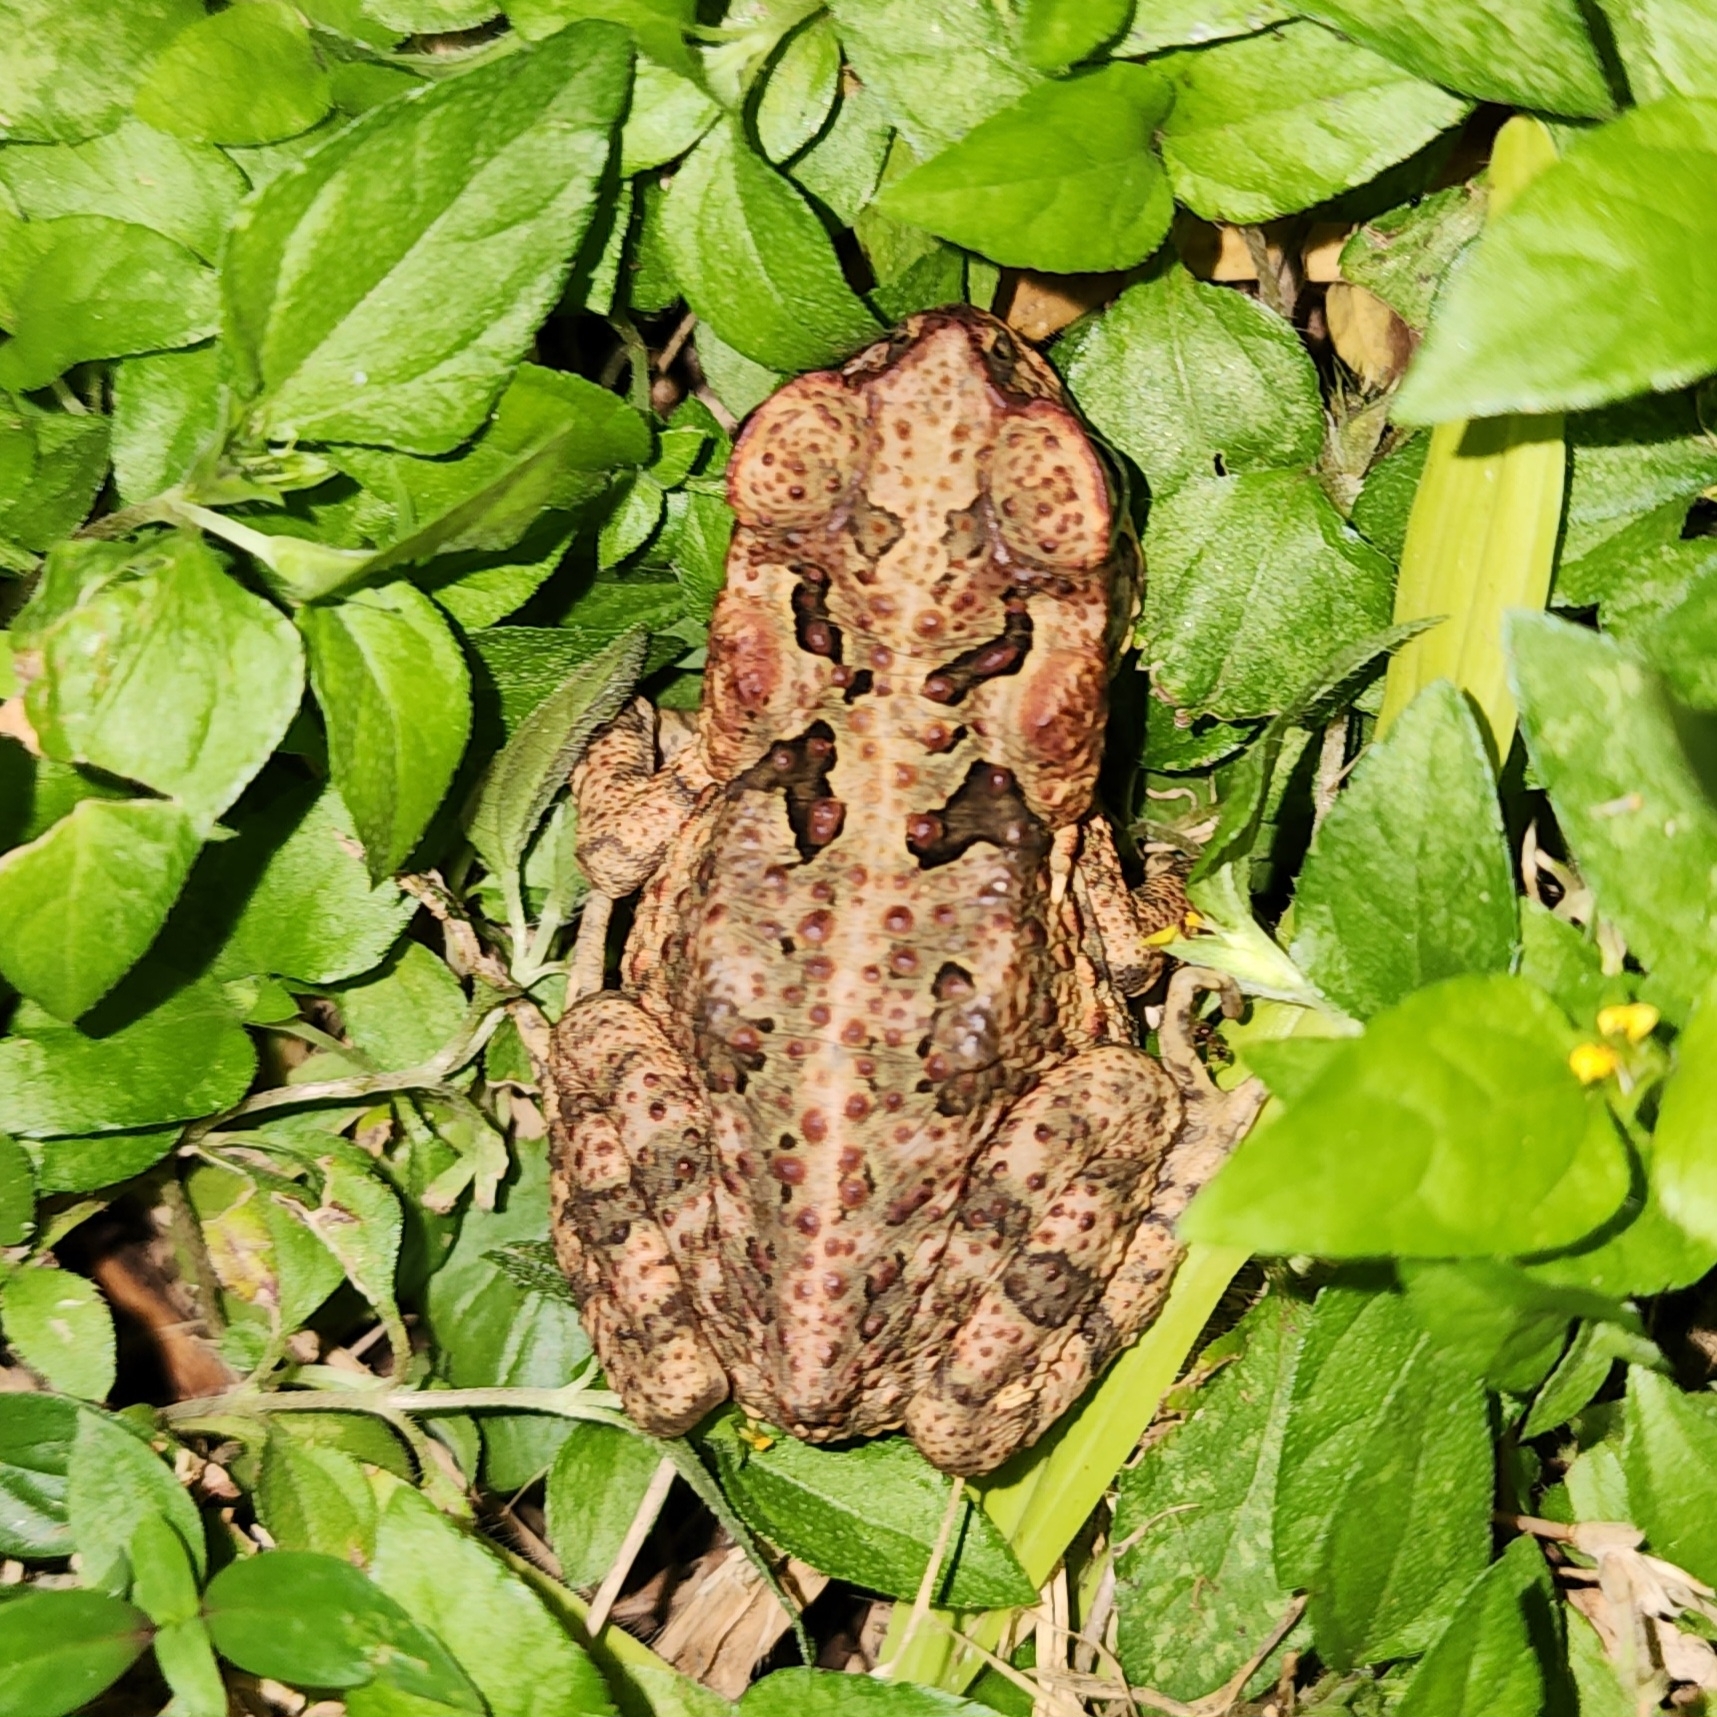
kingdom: Animalia
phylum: Chordata
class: Amphibia
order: Anura
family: Bufonidae
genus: Rhinella
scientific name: Rhinella marina
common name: Cane toad
